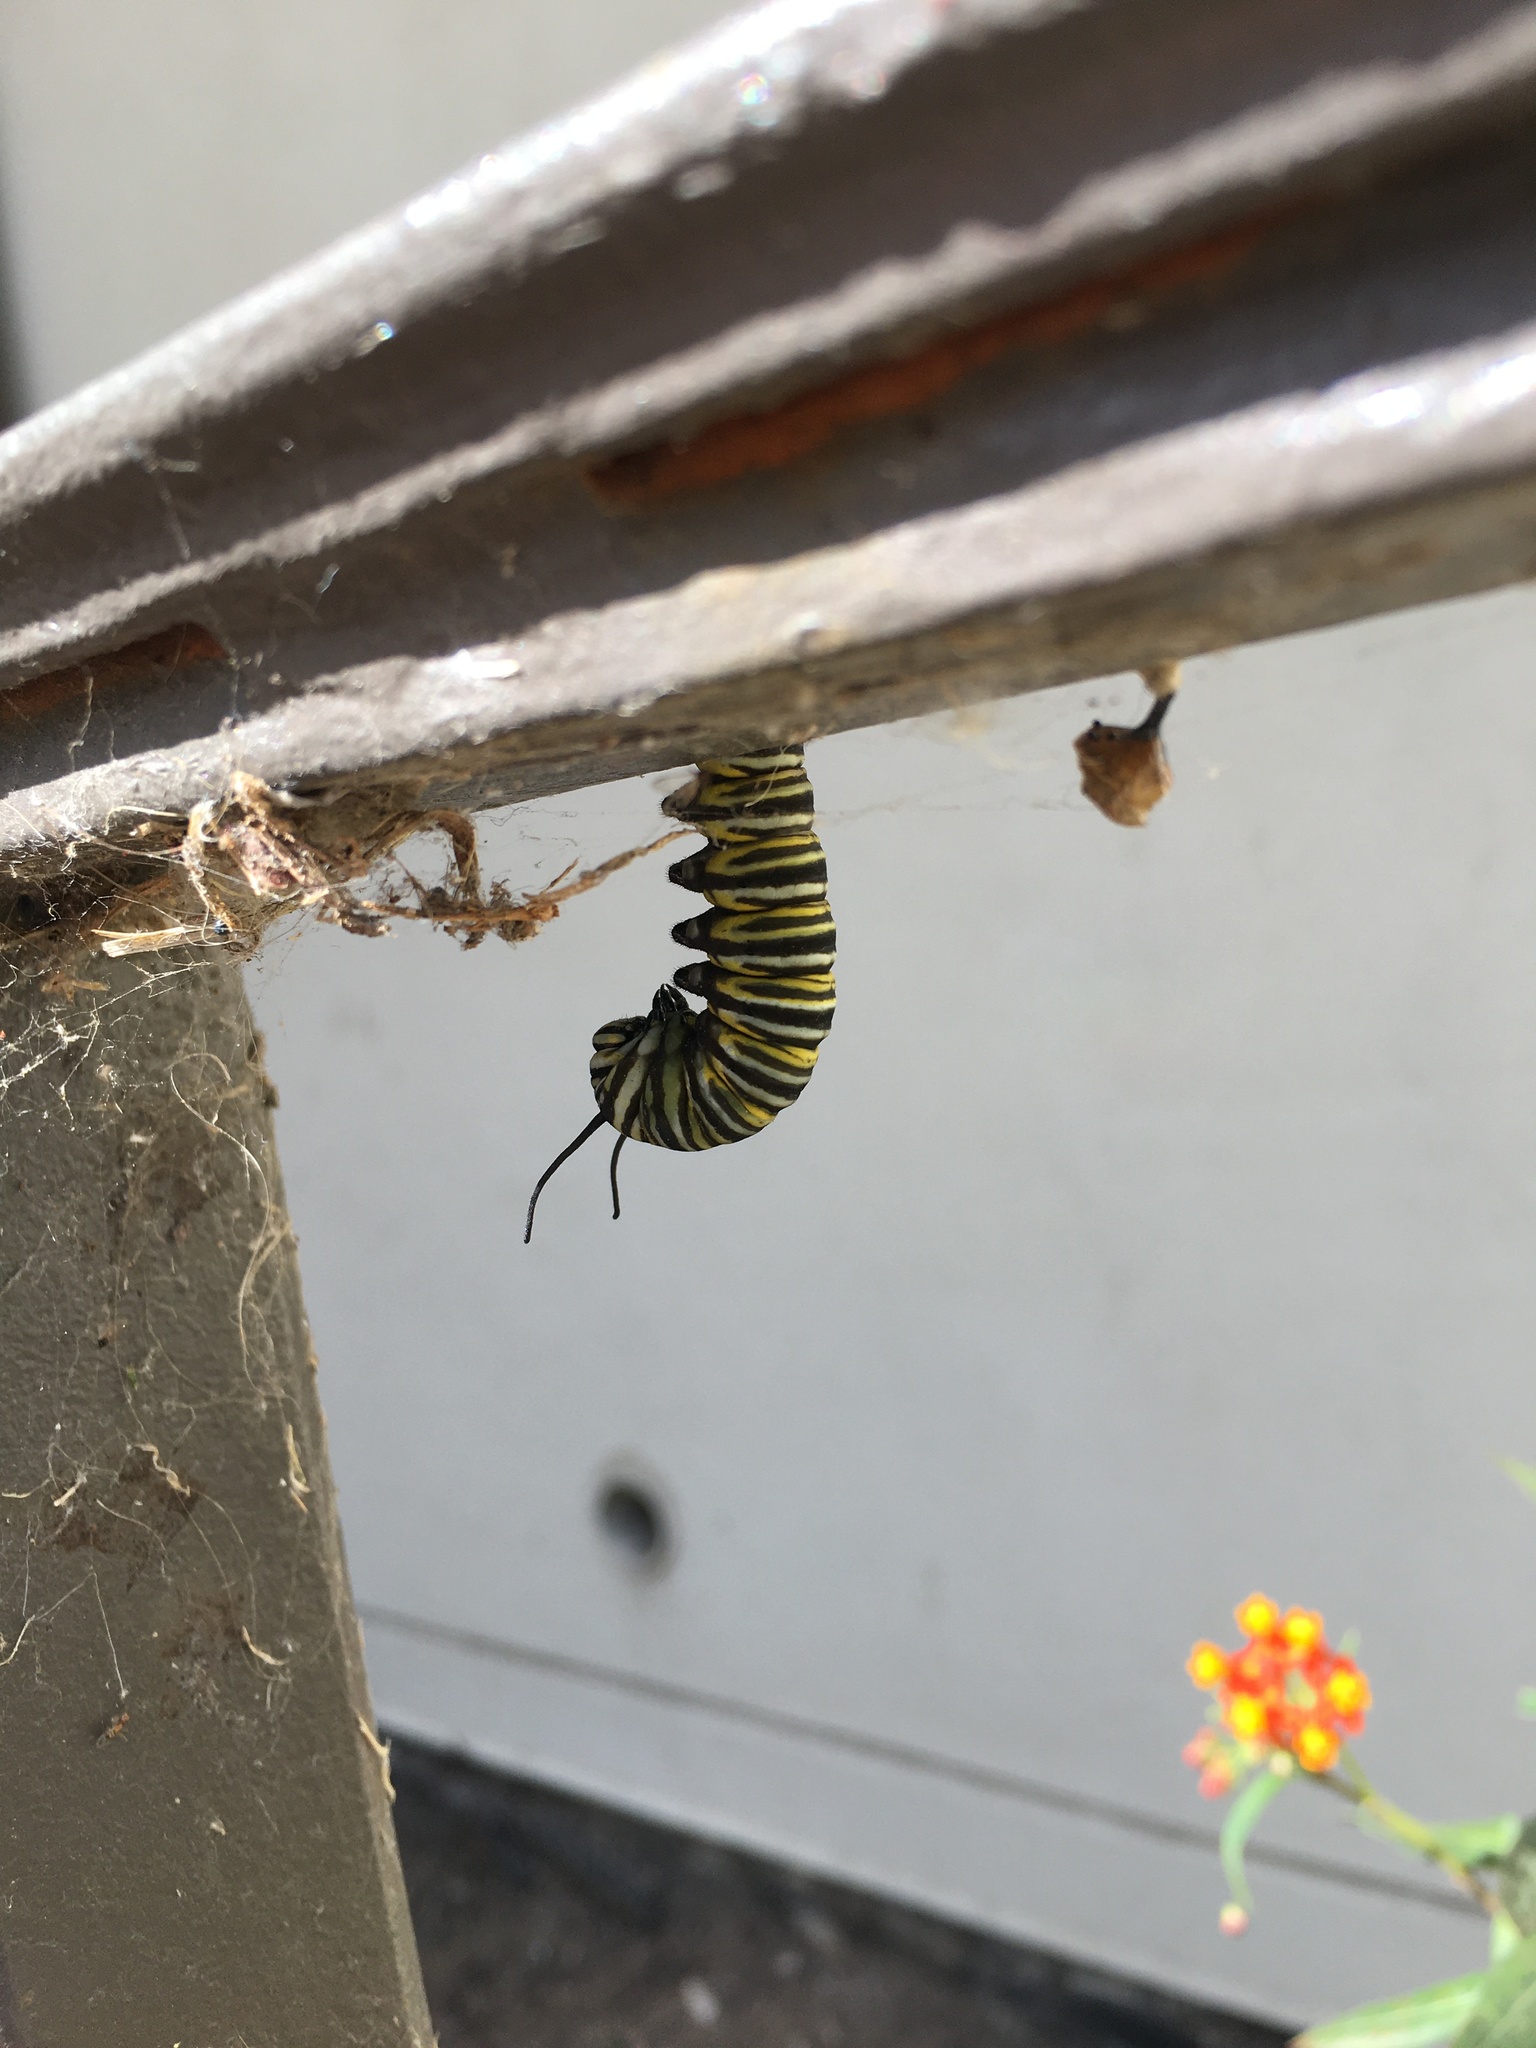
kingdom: Animalia
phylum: Arthropoda
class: Insecta
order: Lepidoptera
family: Nymphalidae
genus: Danaus
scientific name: Danaus plexippus
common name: Monarch
